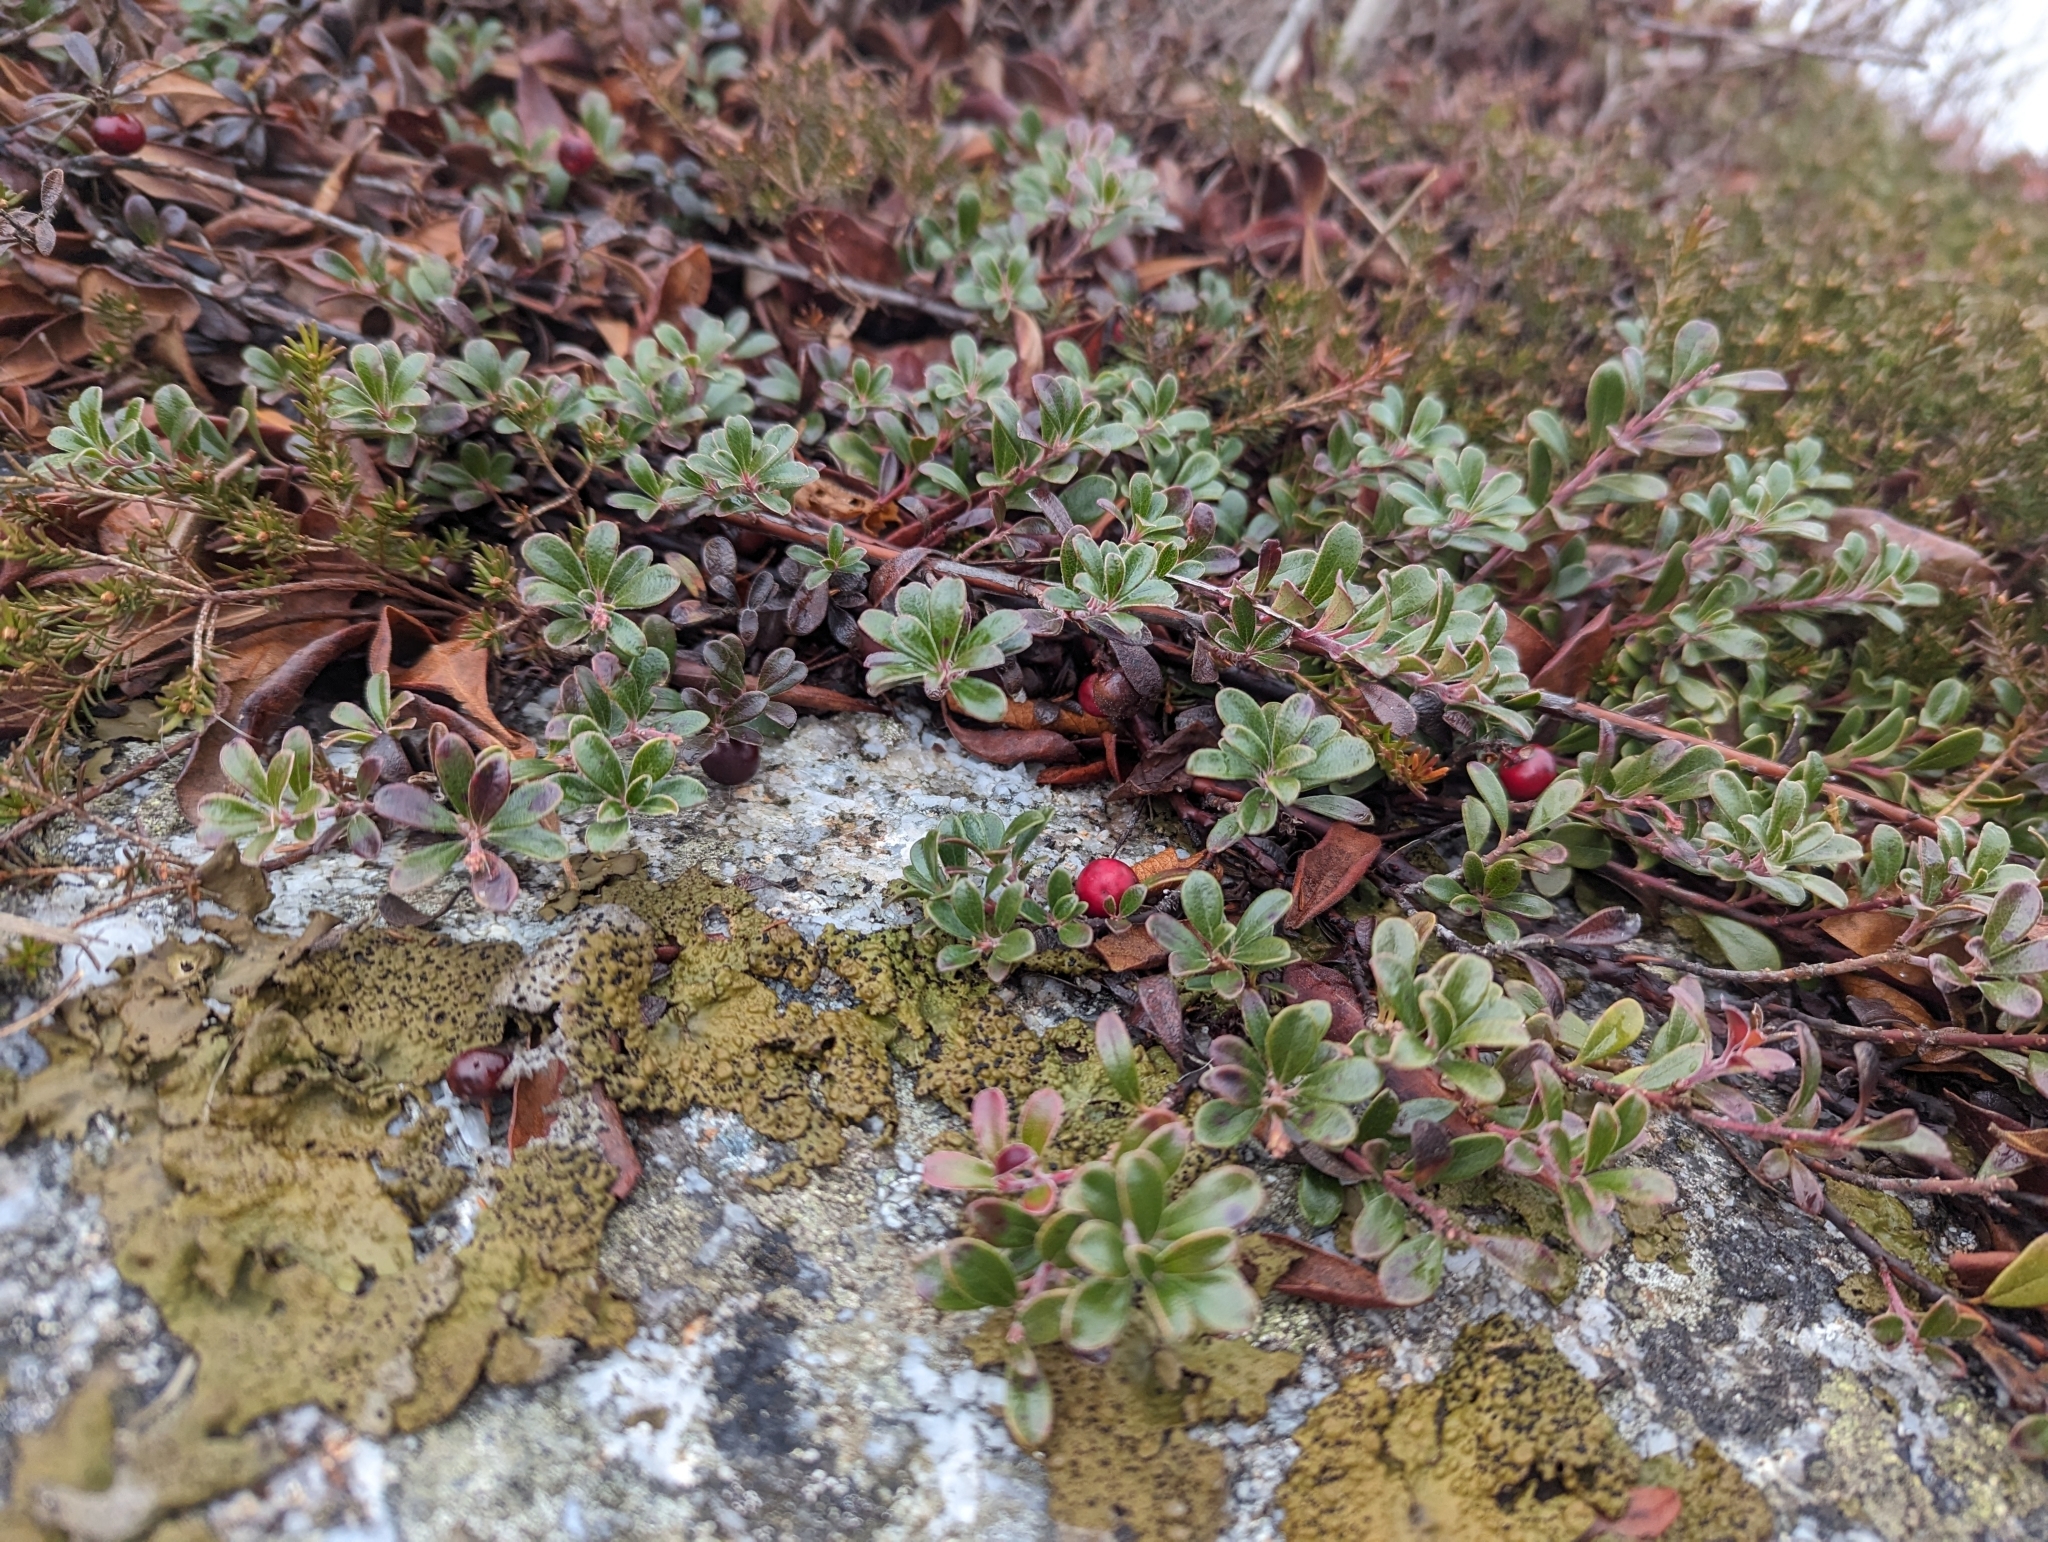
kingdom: Plantae
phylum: Tracheophyta
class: Magnoliopsida
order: Ericales
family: Ericaceae
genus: Arctostaphylos
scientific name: Arctostaphylos uva-ursi
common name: Bearberry
